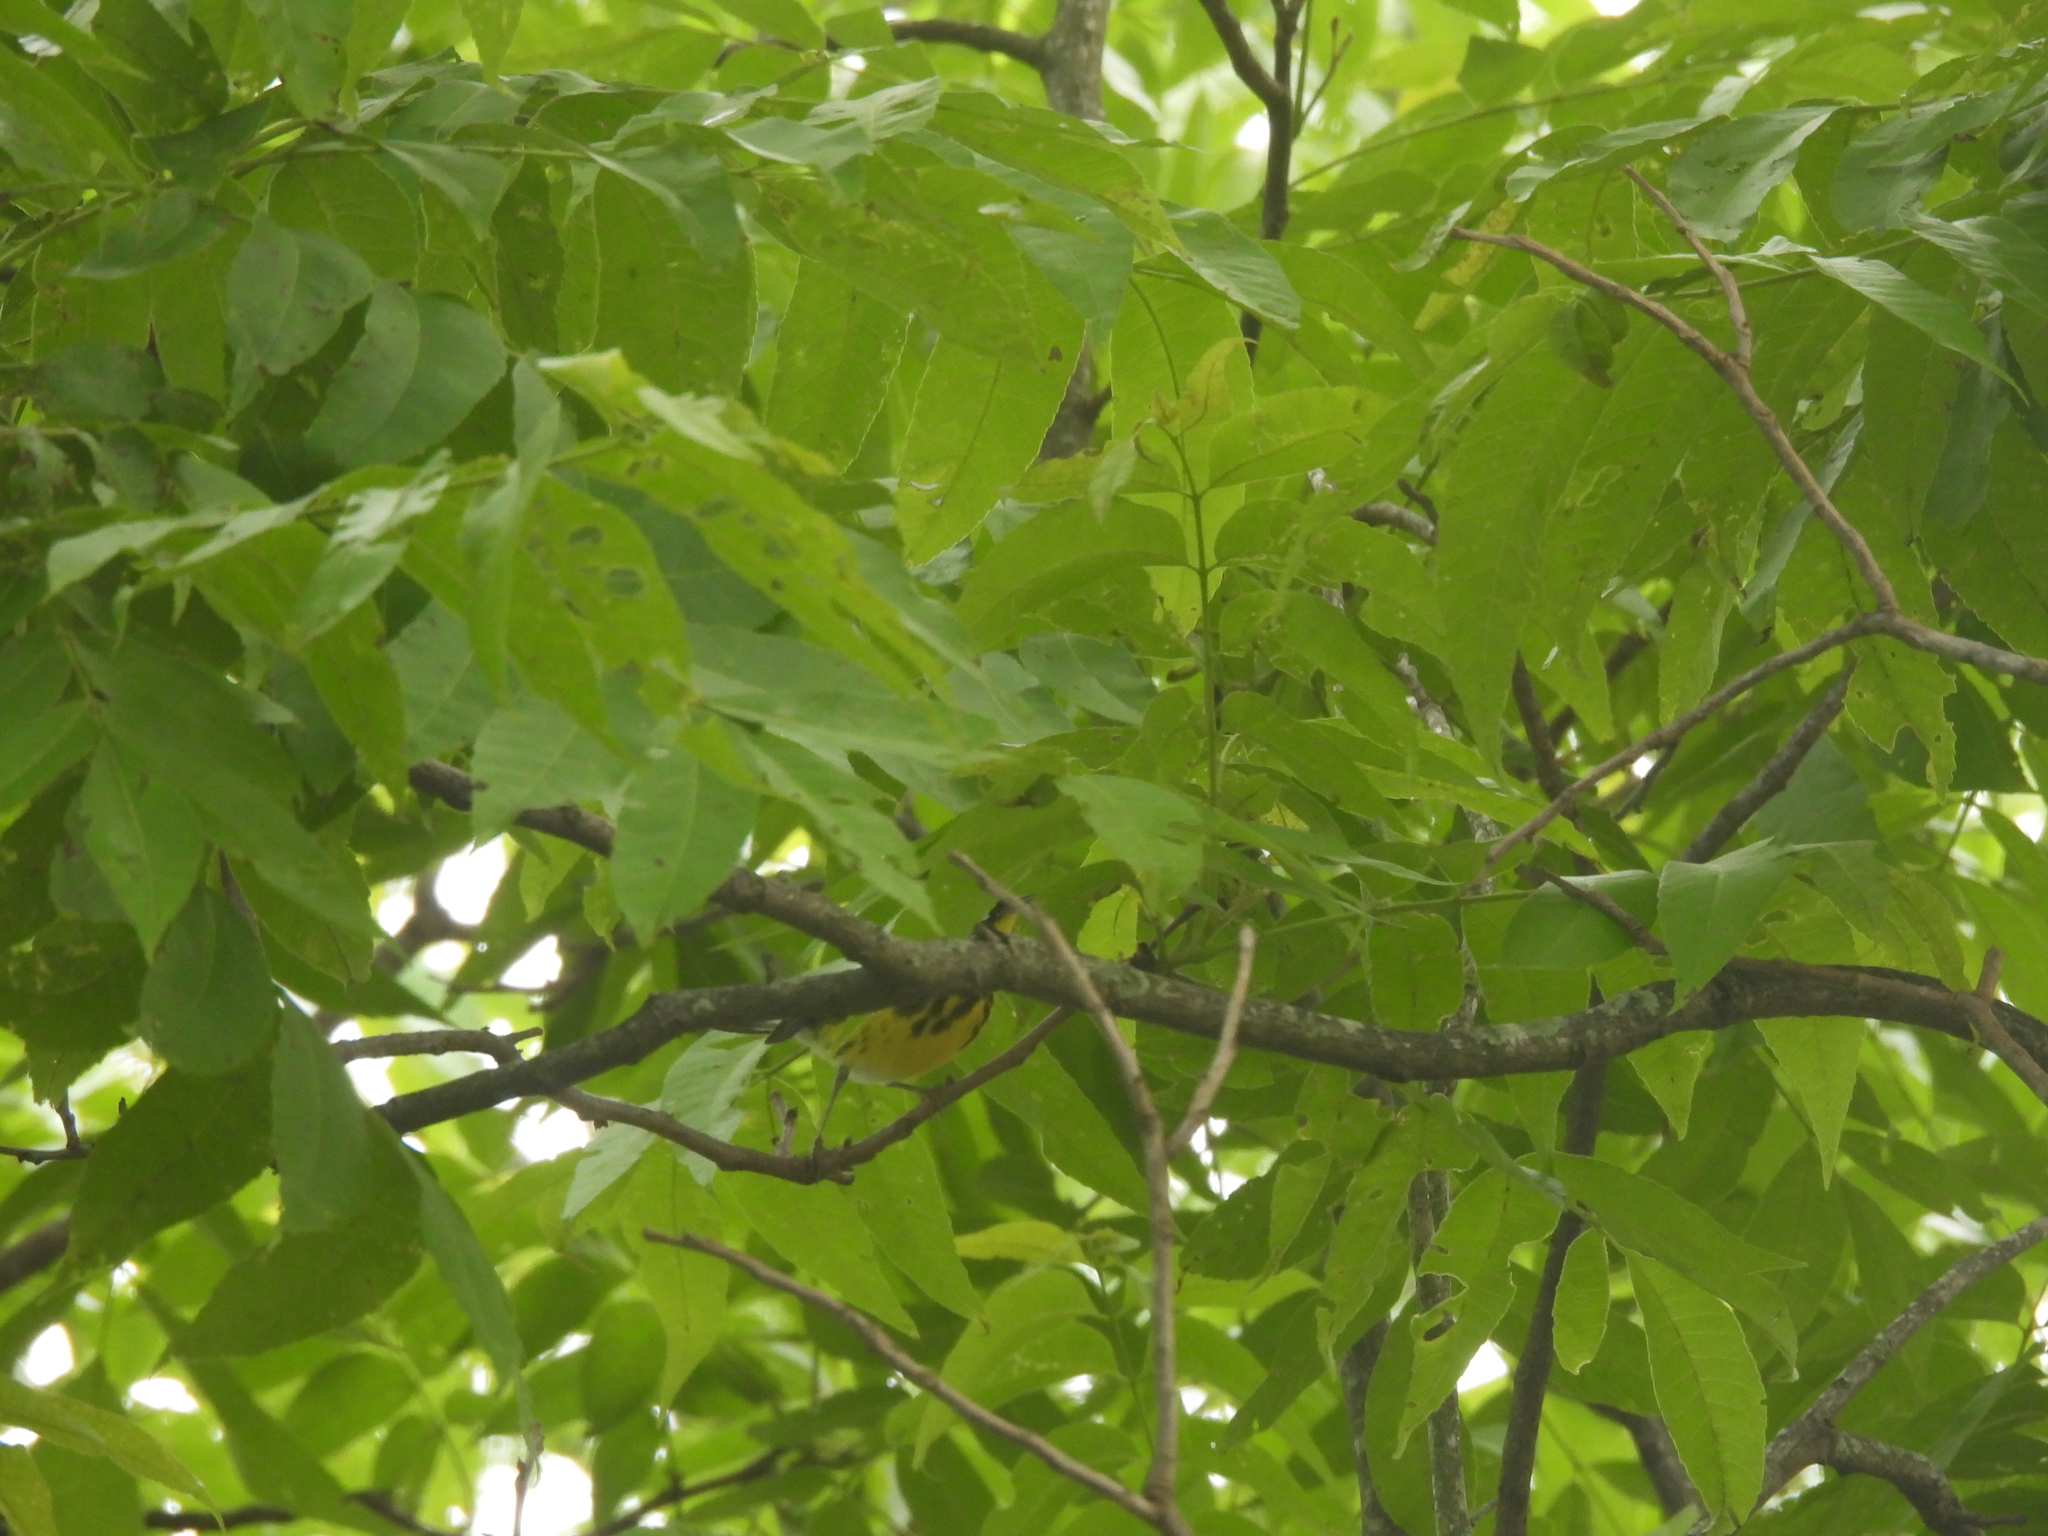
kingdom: Animalia
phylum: Chordata
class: Aves
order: Passeriformes
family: Parulidae
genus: Setophaga
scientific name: Setophaga magnolia
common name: Magnolia warbler
